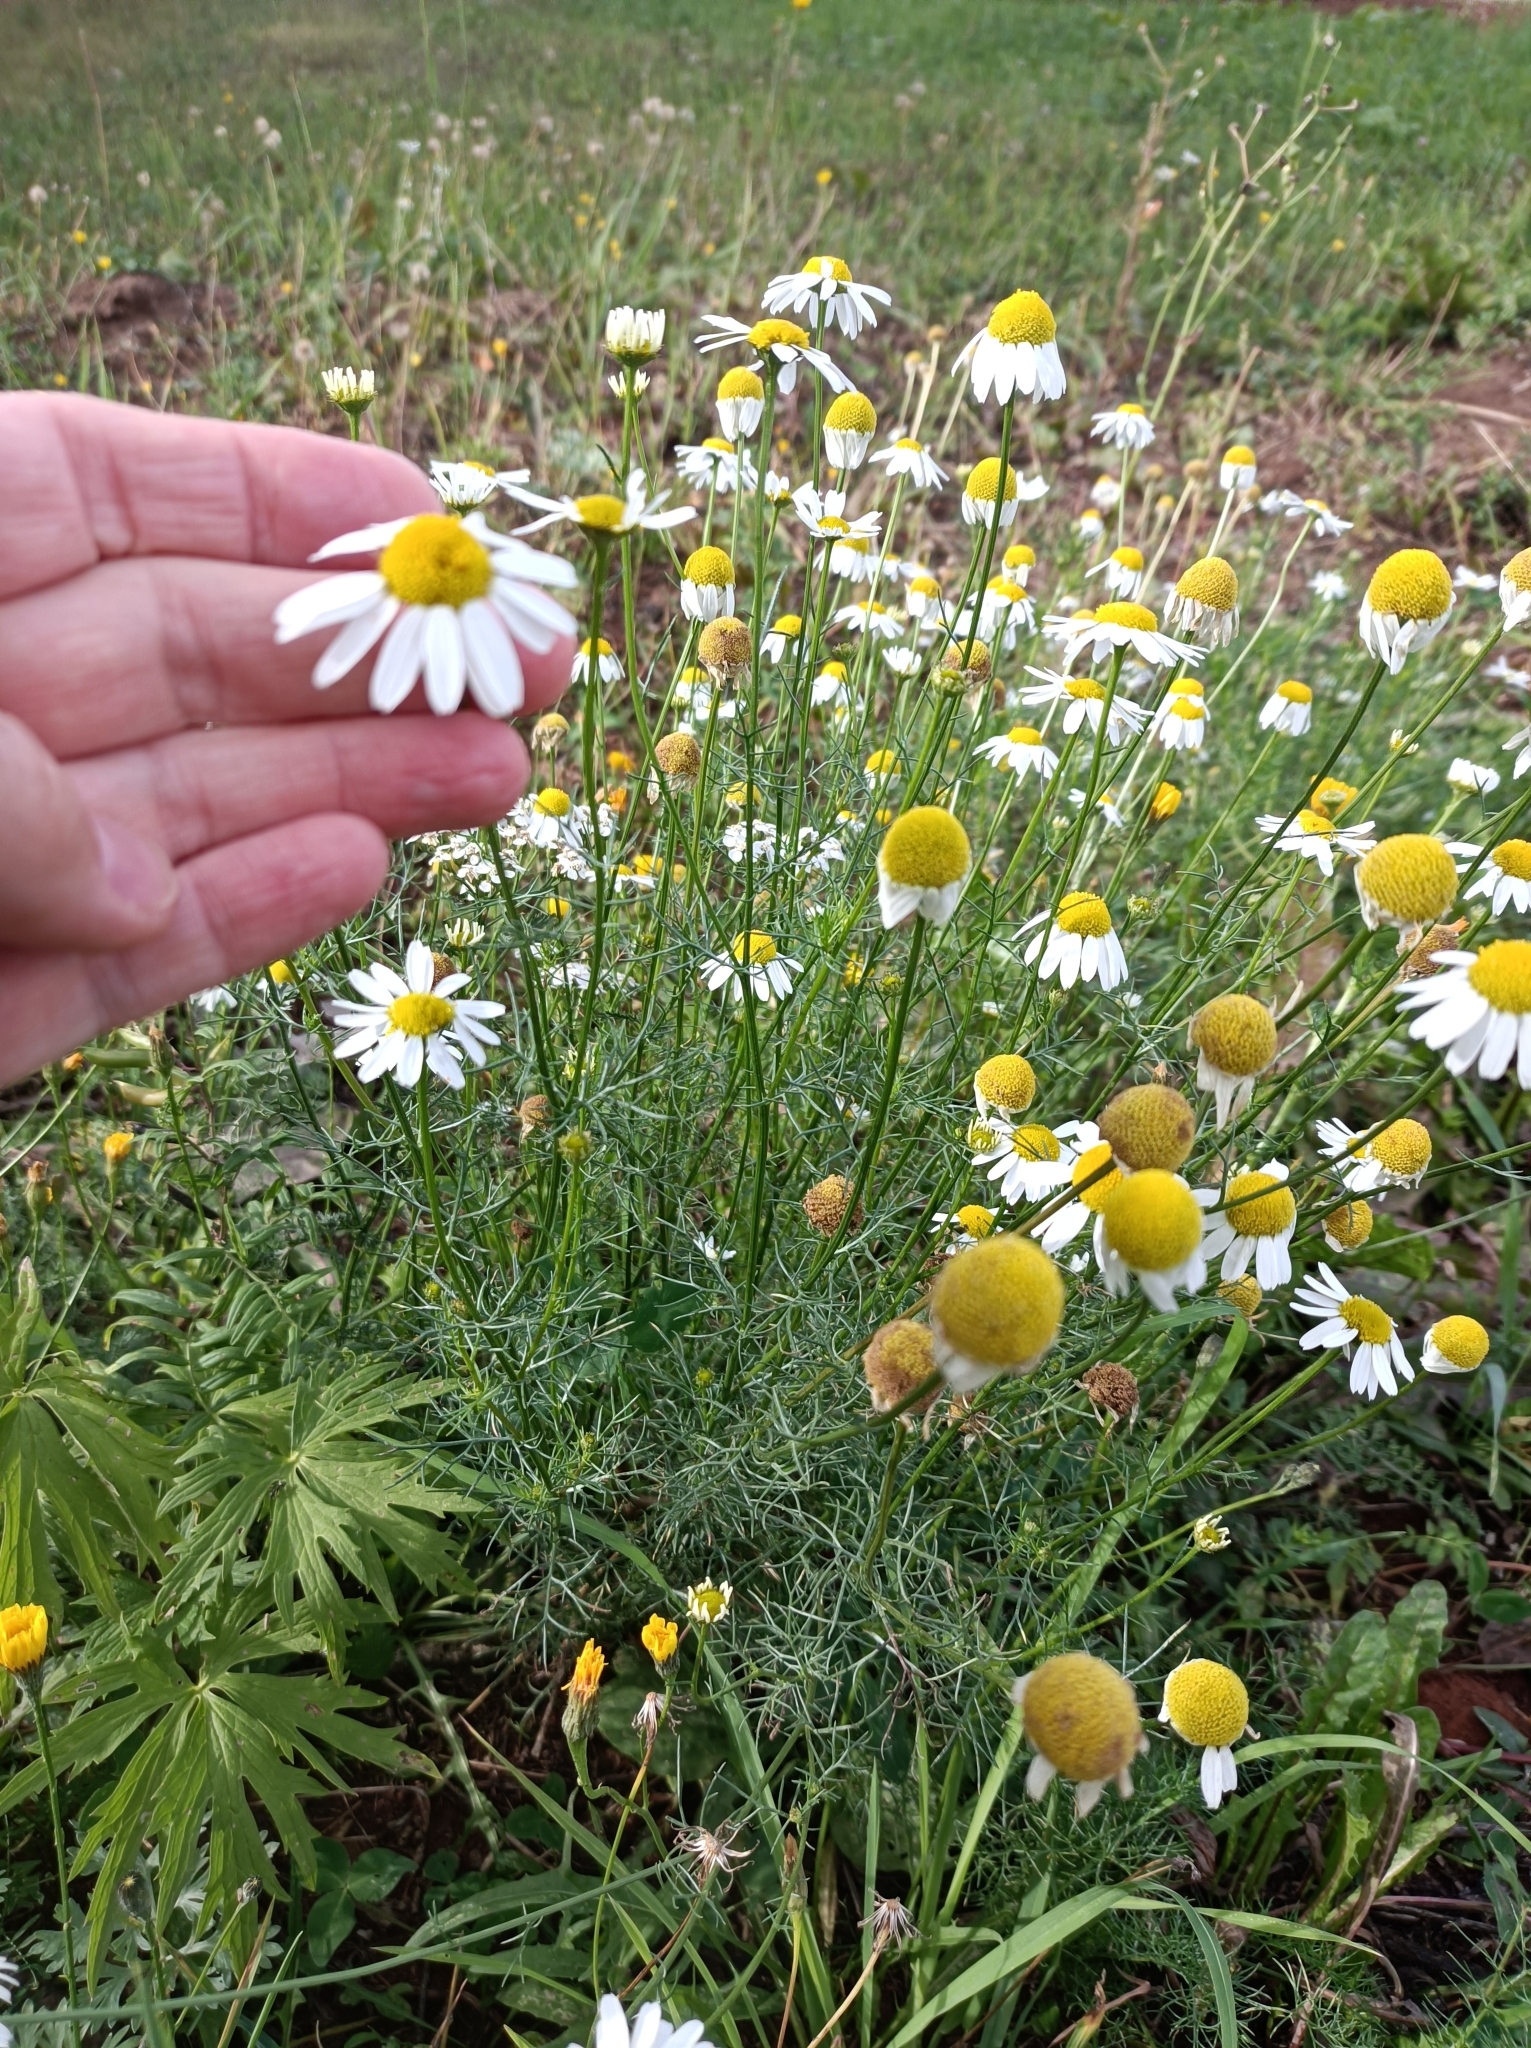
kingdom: Plantae
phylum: Tracheophyta
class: Magnoliopsida
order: Asterales
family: Asteraceae
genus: Tripleurospermum
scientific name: Tripleurospermum inodorum
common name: Scentless mayweed
